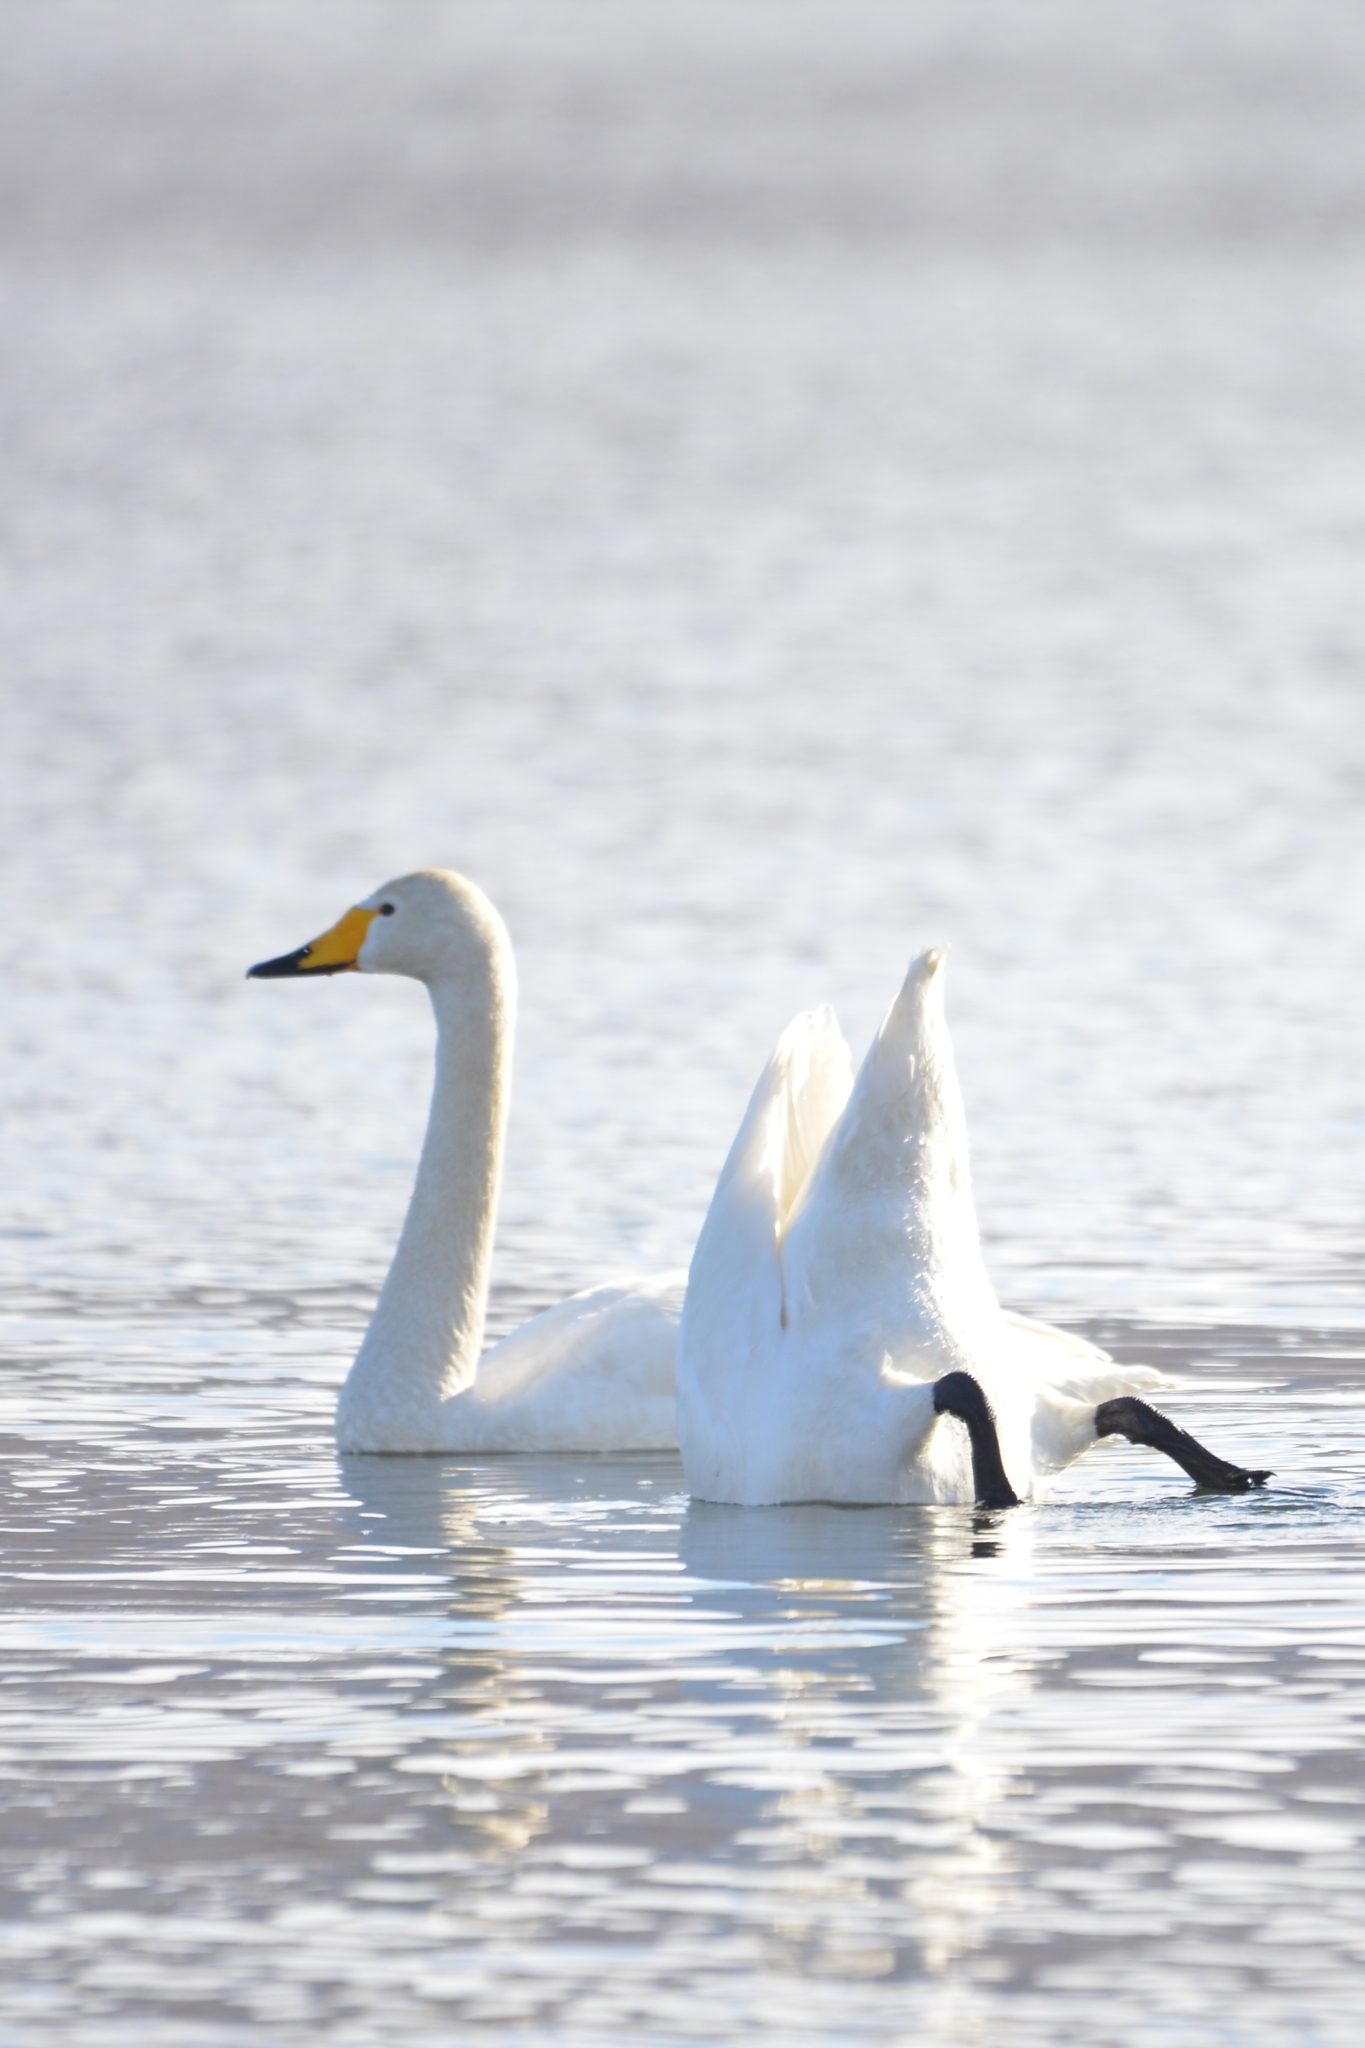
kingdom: Animalia
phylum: Chordata
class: Aves
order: Anseriformes
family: Anatidae
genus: Cygnus
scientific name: Cygnus cygnus
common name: Whooper swan
